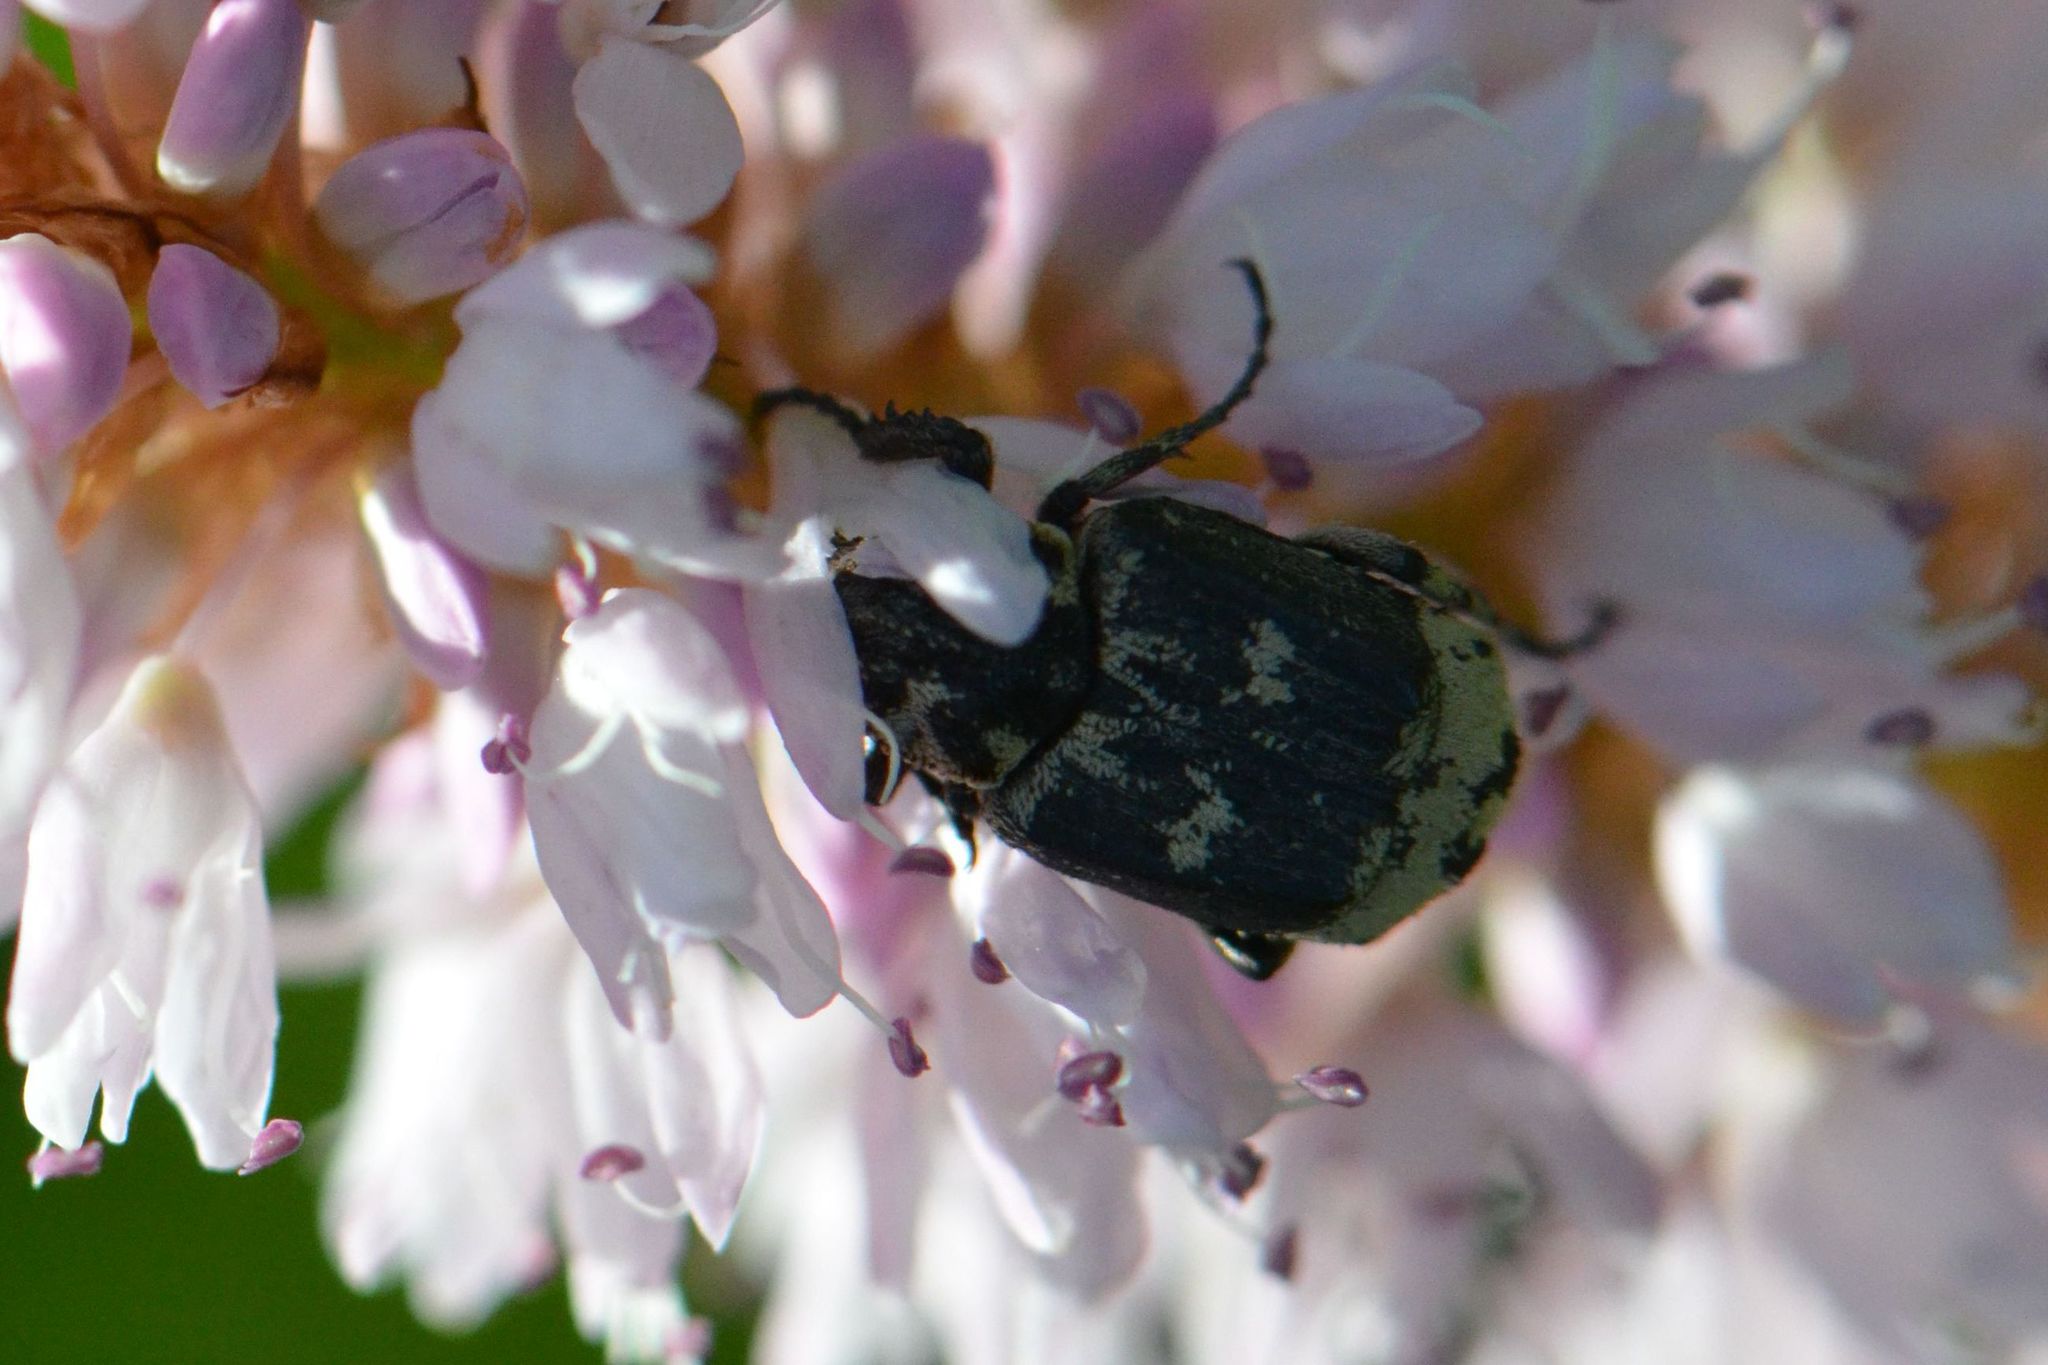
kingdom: Animalia
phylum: Arthropoda
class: Insecta
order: Coleoptera
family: Scarabaeidae
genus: Valgus
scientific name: Valgus hemipterus
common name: Bug flower chafer
